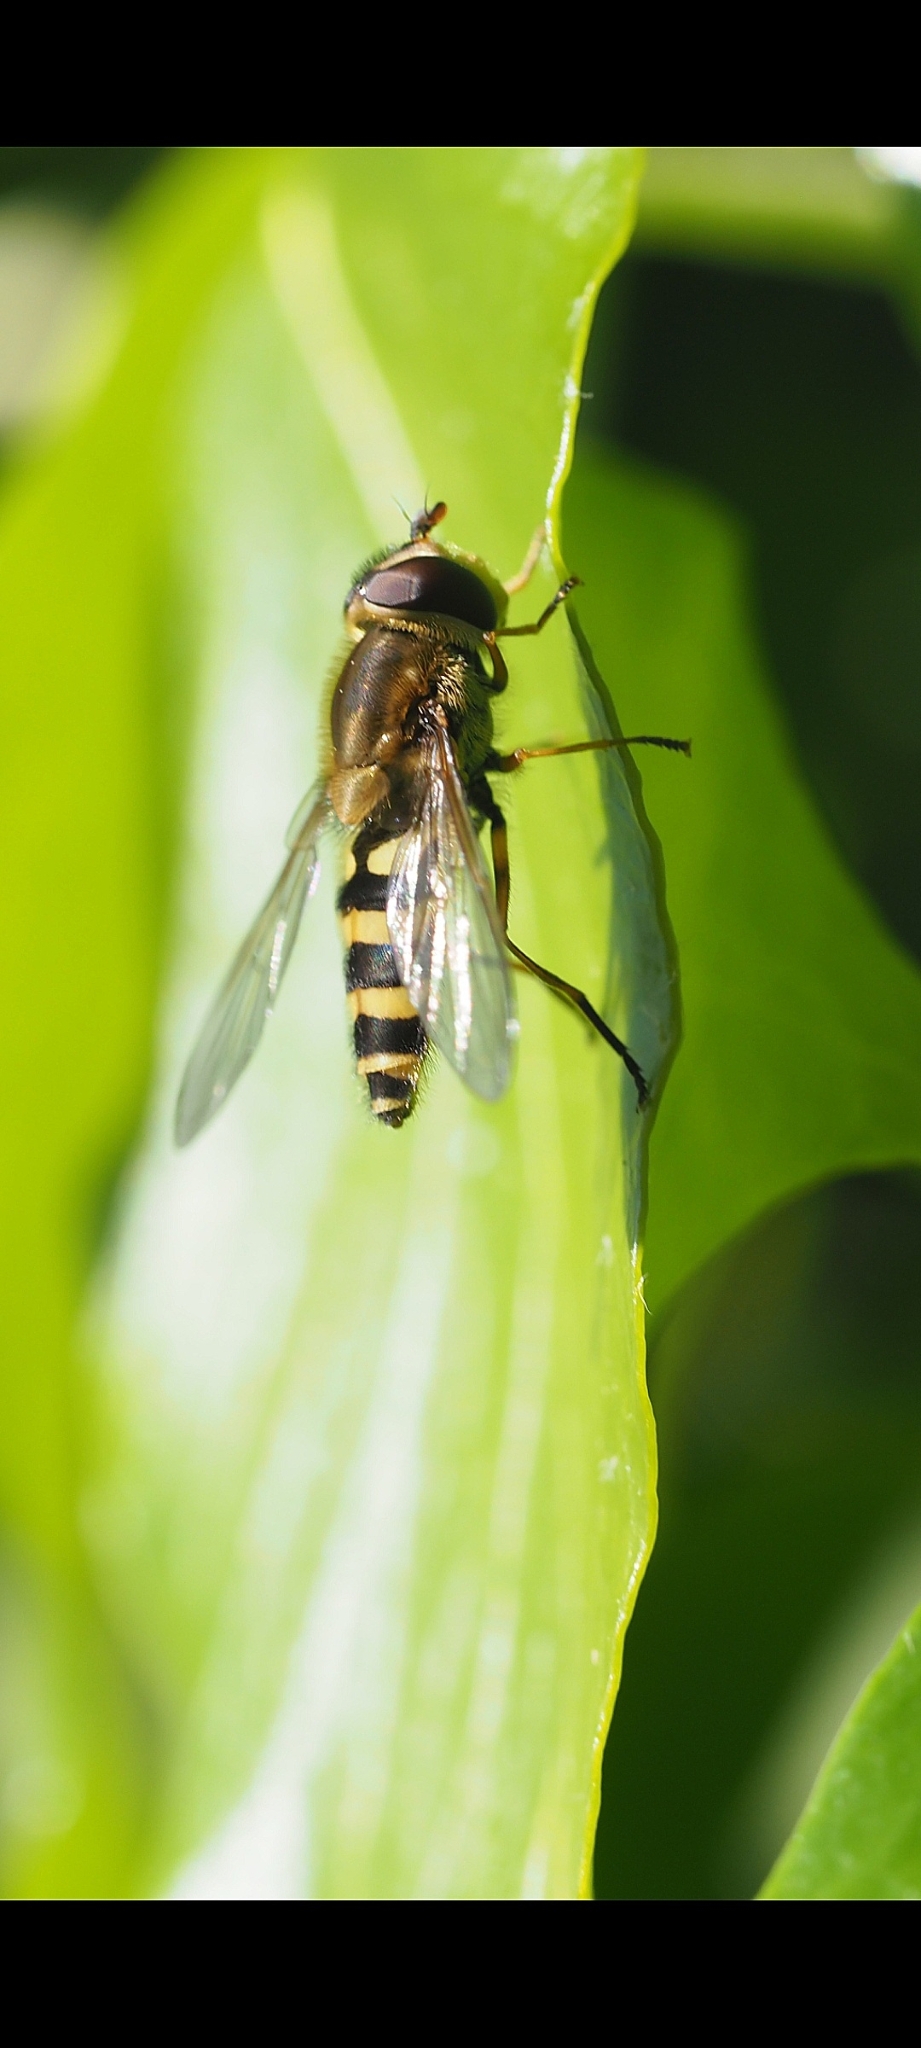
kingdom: Animalia
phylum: Arthropoda
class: Insecta
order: Diptera
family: Syrphidae
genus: Syrphus
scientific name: Syrphus ribesii
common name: Common flower fly
